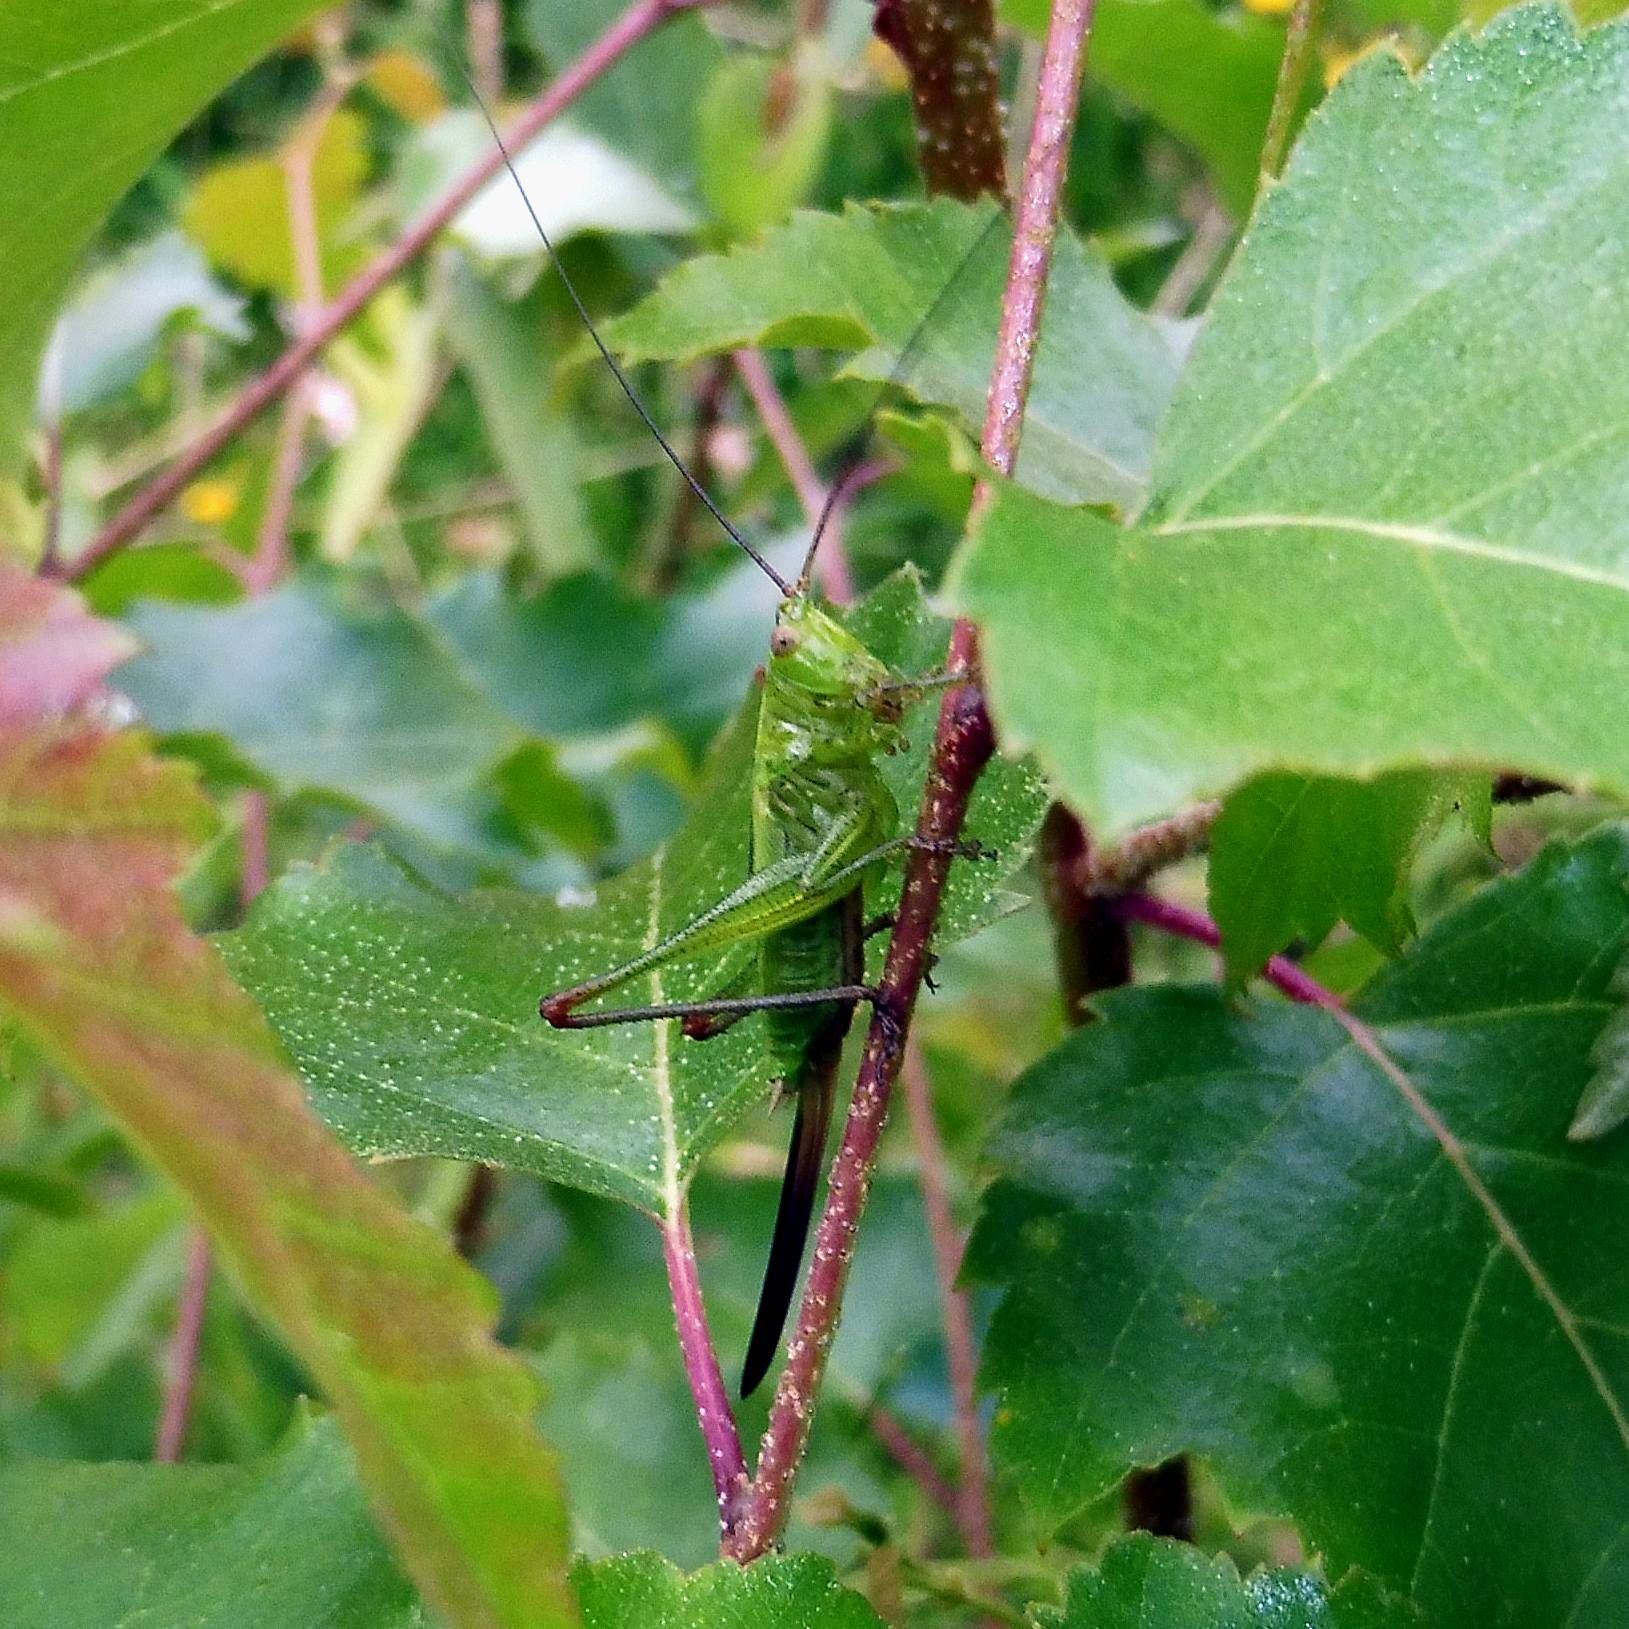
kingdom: Animalia
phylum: Arthropoda
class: Insecta
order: Orthoptera
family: Tettigoniidae
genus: Conocephalus
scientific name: Conocephalus fuscus
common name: Long-winged conehead
